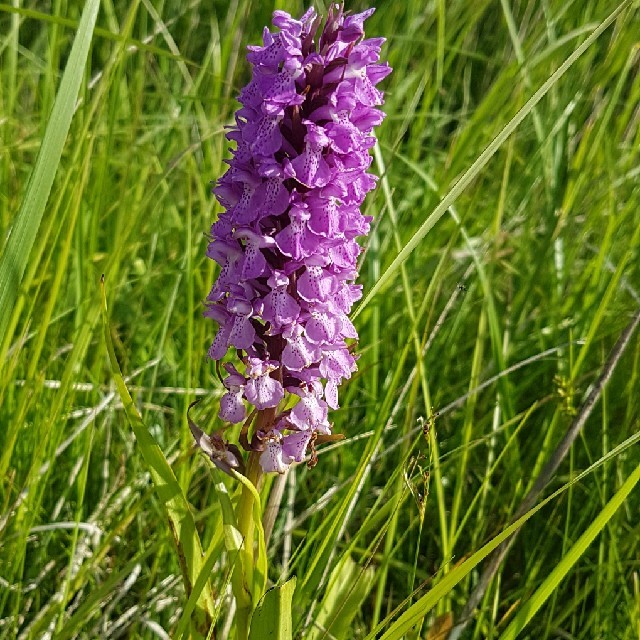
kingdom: Plantae
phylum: Tracheophyta
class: Liliopsida
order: Asparagales
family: Orchidaceae
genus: Dactylorhiza
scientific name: Dactylorhiza majalis
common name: Marsh orchid
